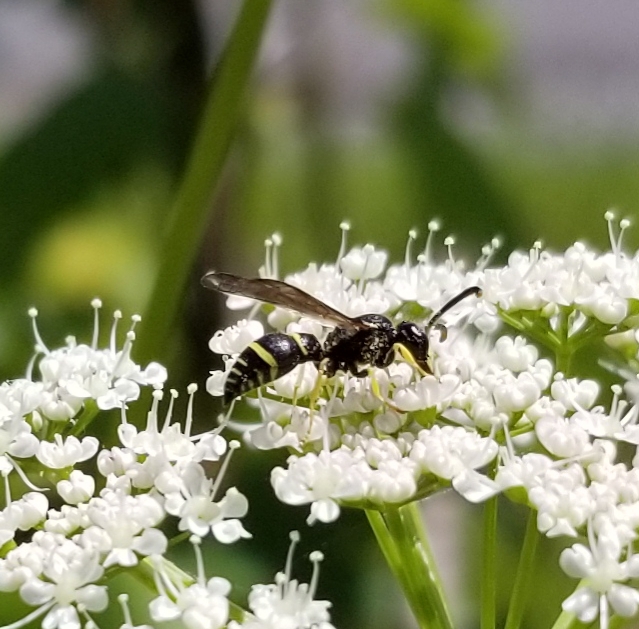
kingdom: Animalia
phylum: Arthropoda
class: Insecta
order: Hymenoptera
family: Vespidae
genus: Ancistrocerus
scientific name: Ancistrocerus
